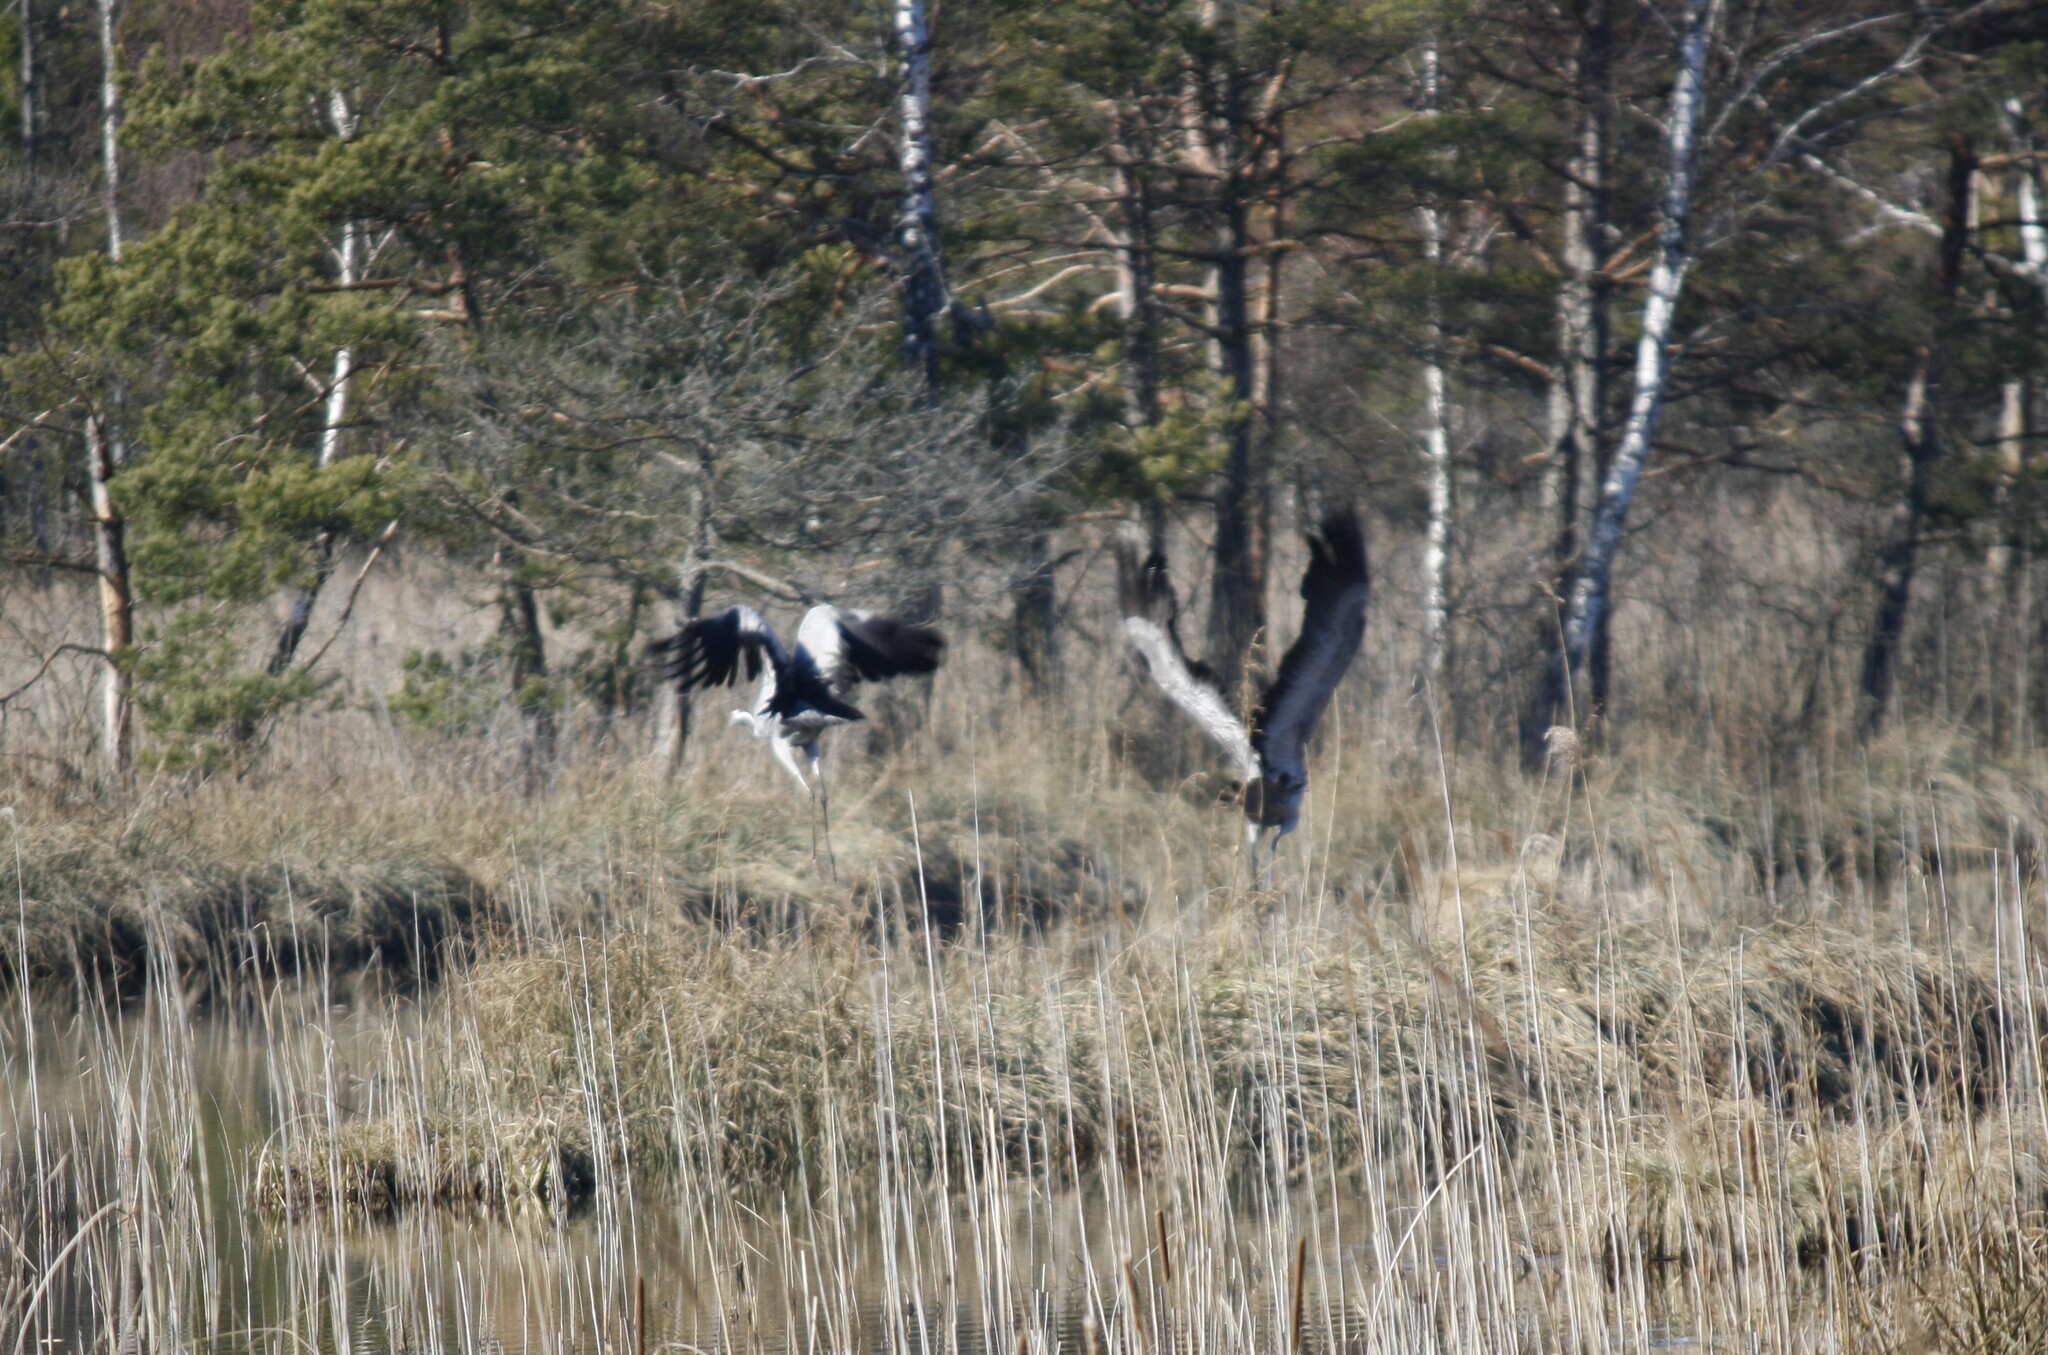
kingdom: Animalia
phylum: Chordata
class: Aves
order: Gruiformes
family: Gruidae
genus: Grus
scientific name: Grus grus
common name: Common crane
